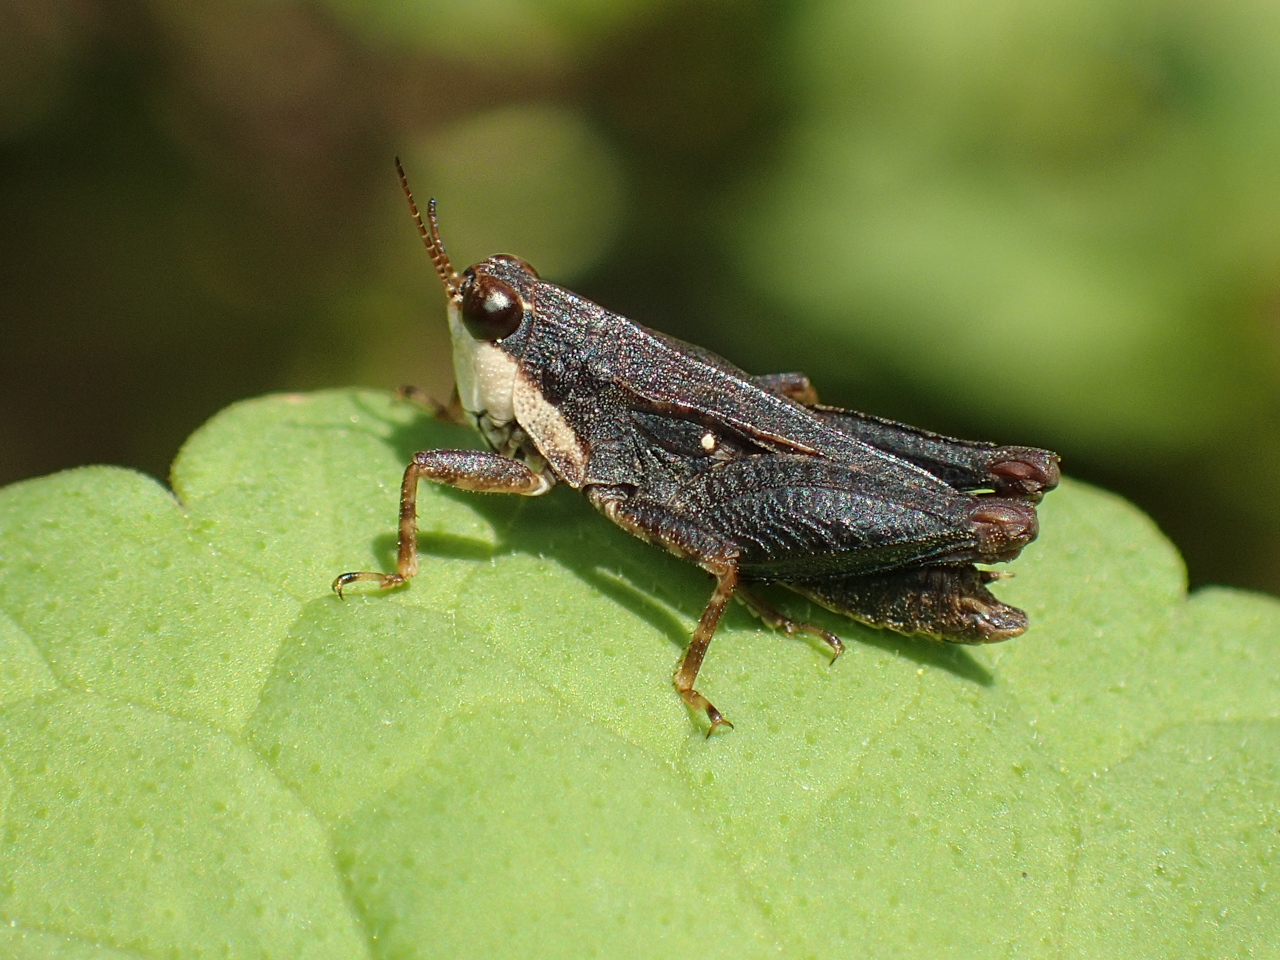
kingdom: Animalia
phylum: Arthropoda
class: Insecta
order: Orthoptera
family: Tetrigidae
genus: Tettigidea
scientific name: Tettigidea laterale
